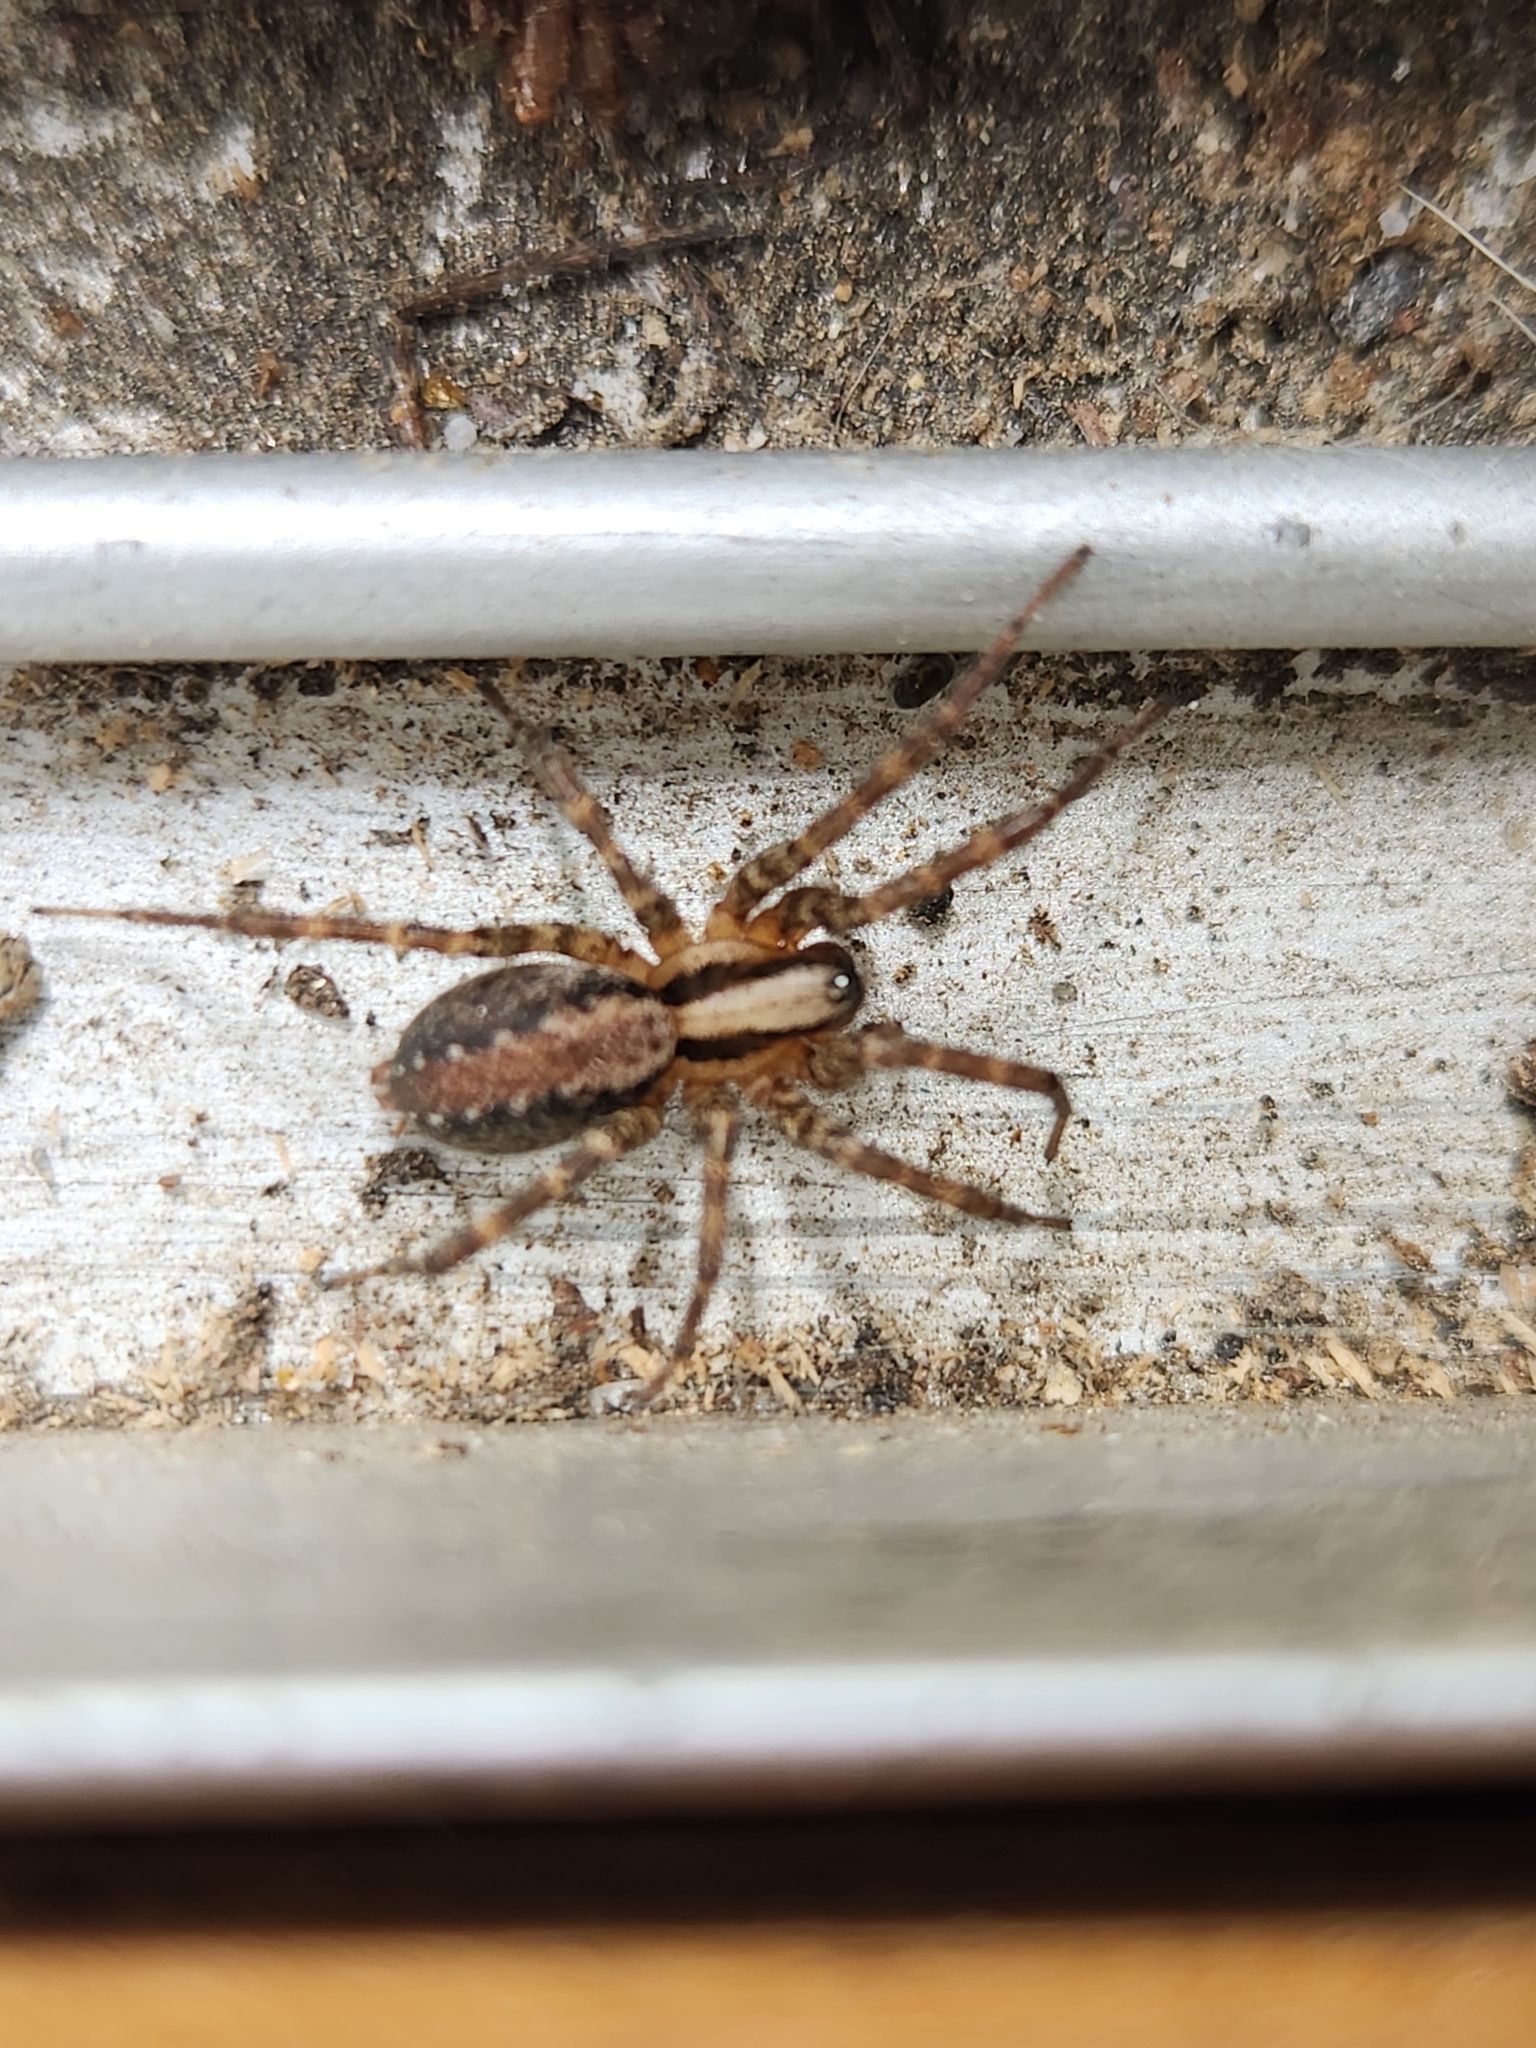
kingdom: Animalia
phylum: Arthropoda
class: Arachnida
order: Araneae
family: Agelenidae
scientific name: Agelenidae
